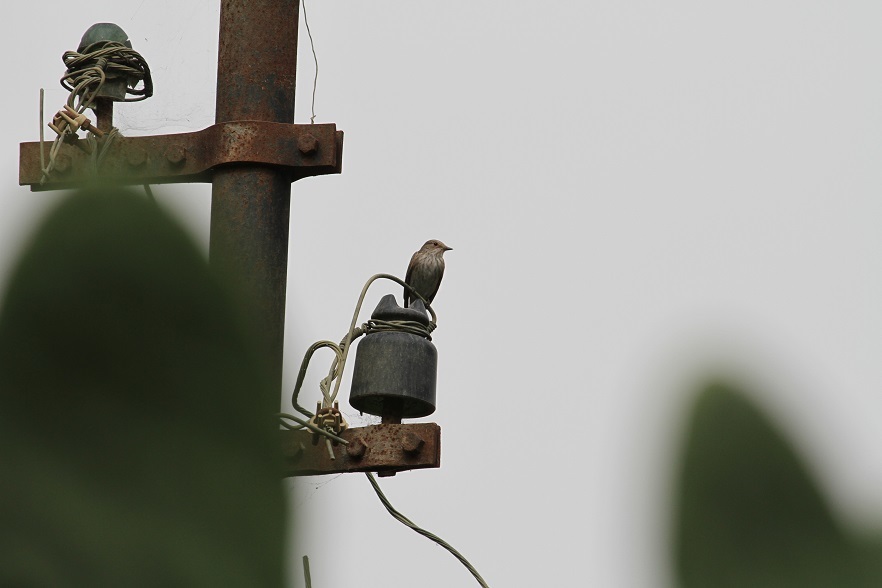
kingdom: Animalia
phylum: Chordata
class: Aves
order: Passeriformes
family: Muscicapidae
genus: Muscicapa
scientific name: Muscicapa striata
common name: Spotted flycatcher
